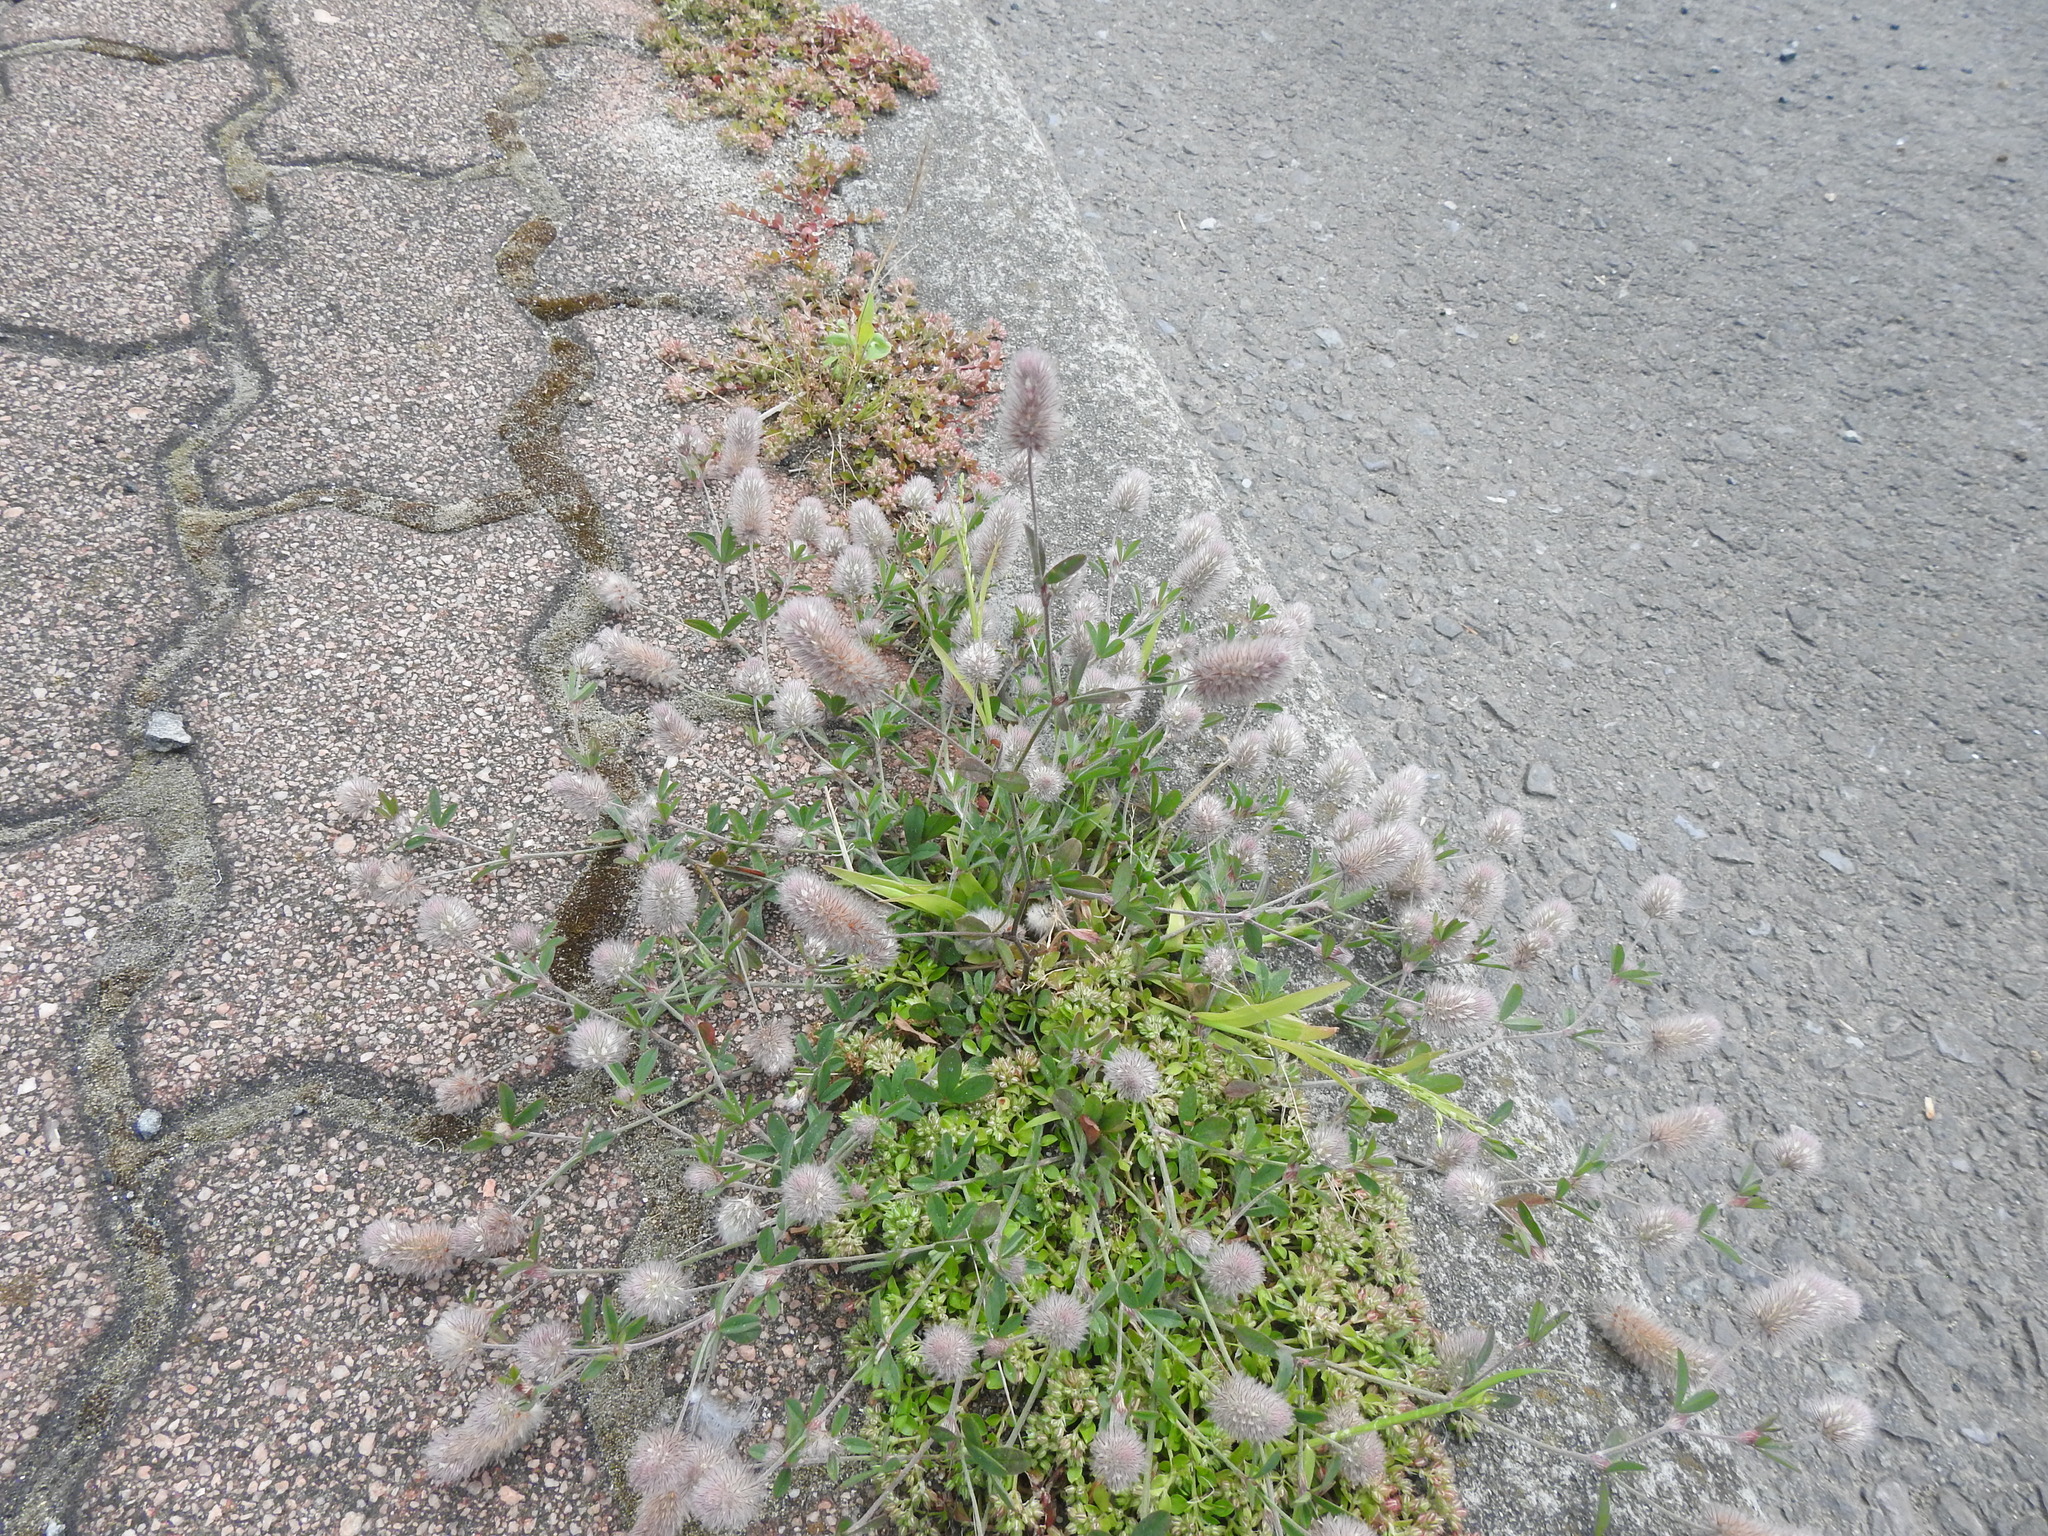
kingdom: Plantae
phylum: Tracheophyta
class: Magnoliopsida
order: Fabales
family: Fabaceae
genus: Trifolium
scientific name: Trifolium arvense
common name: Hare's-foot clover
